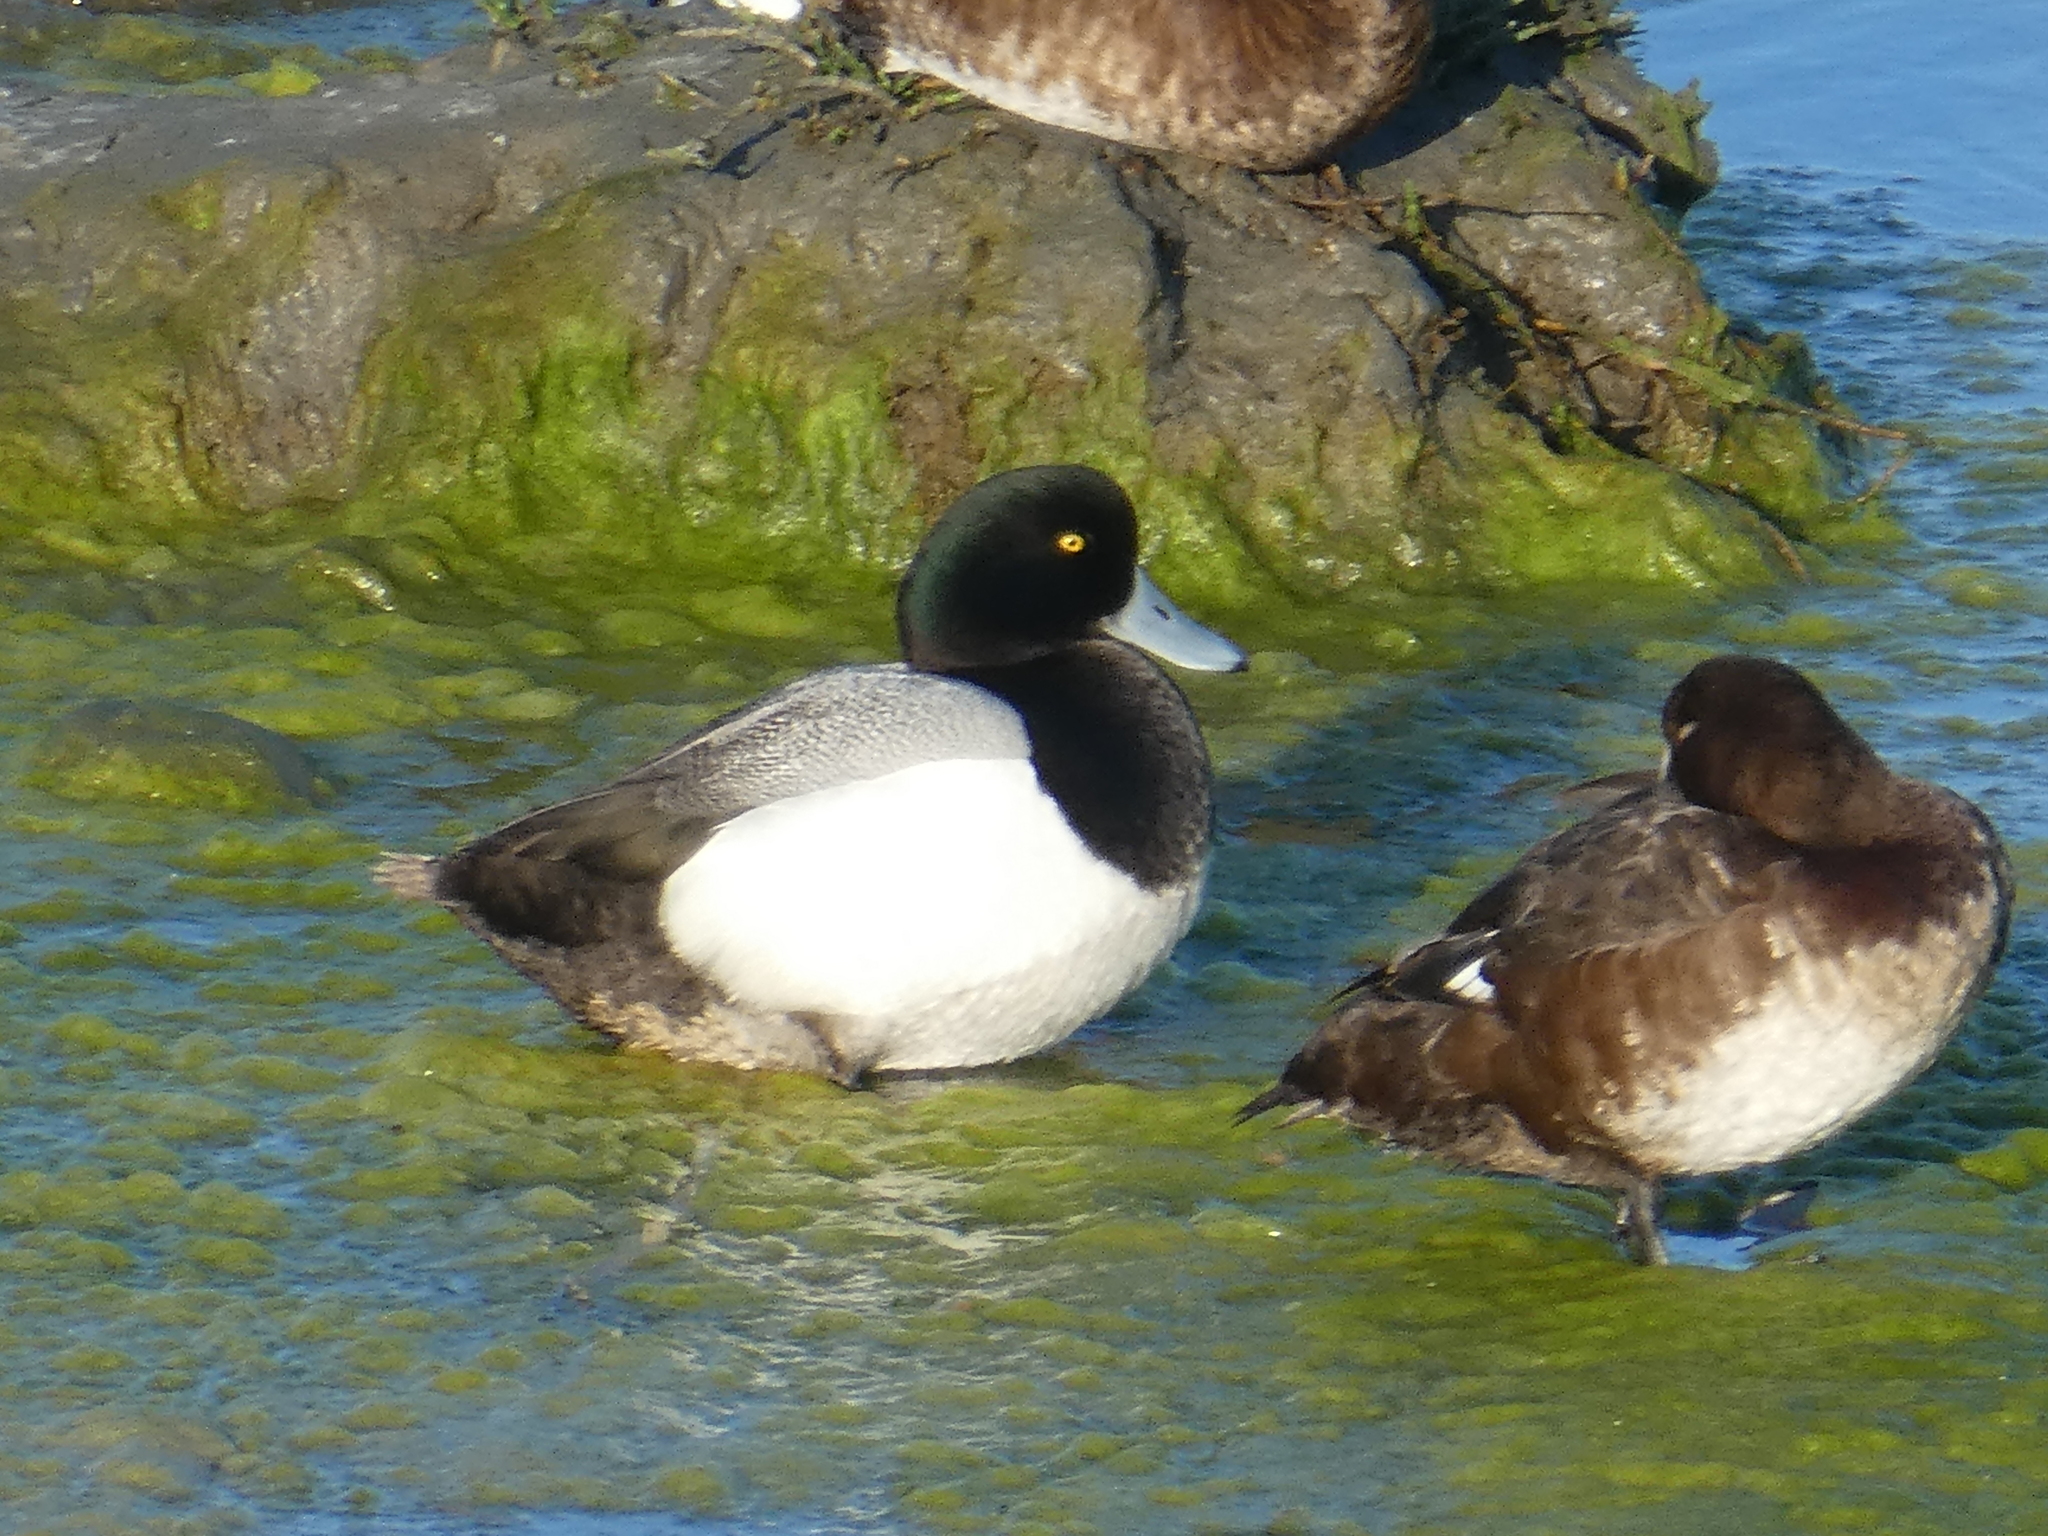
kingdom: Animalia
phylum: Chordata
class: Aves
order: Anseriformes
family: Anatidae
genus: Aythya
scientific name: Aythya marila
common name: Greater scaup
